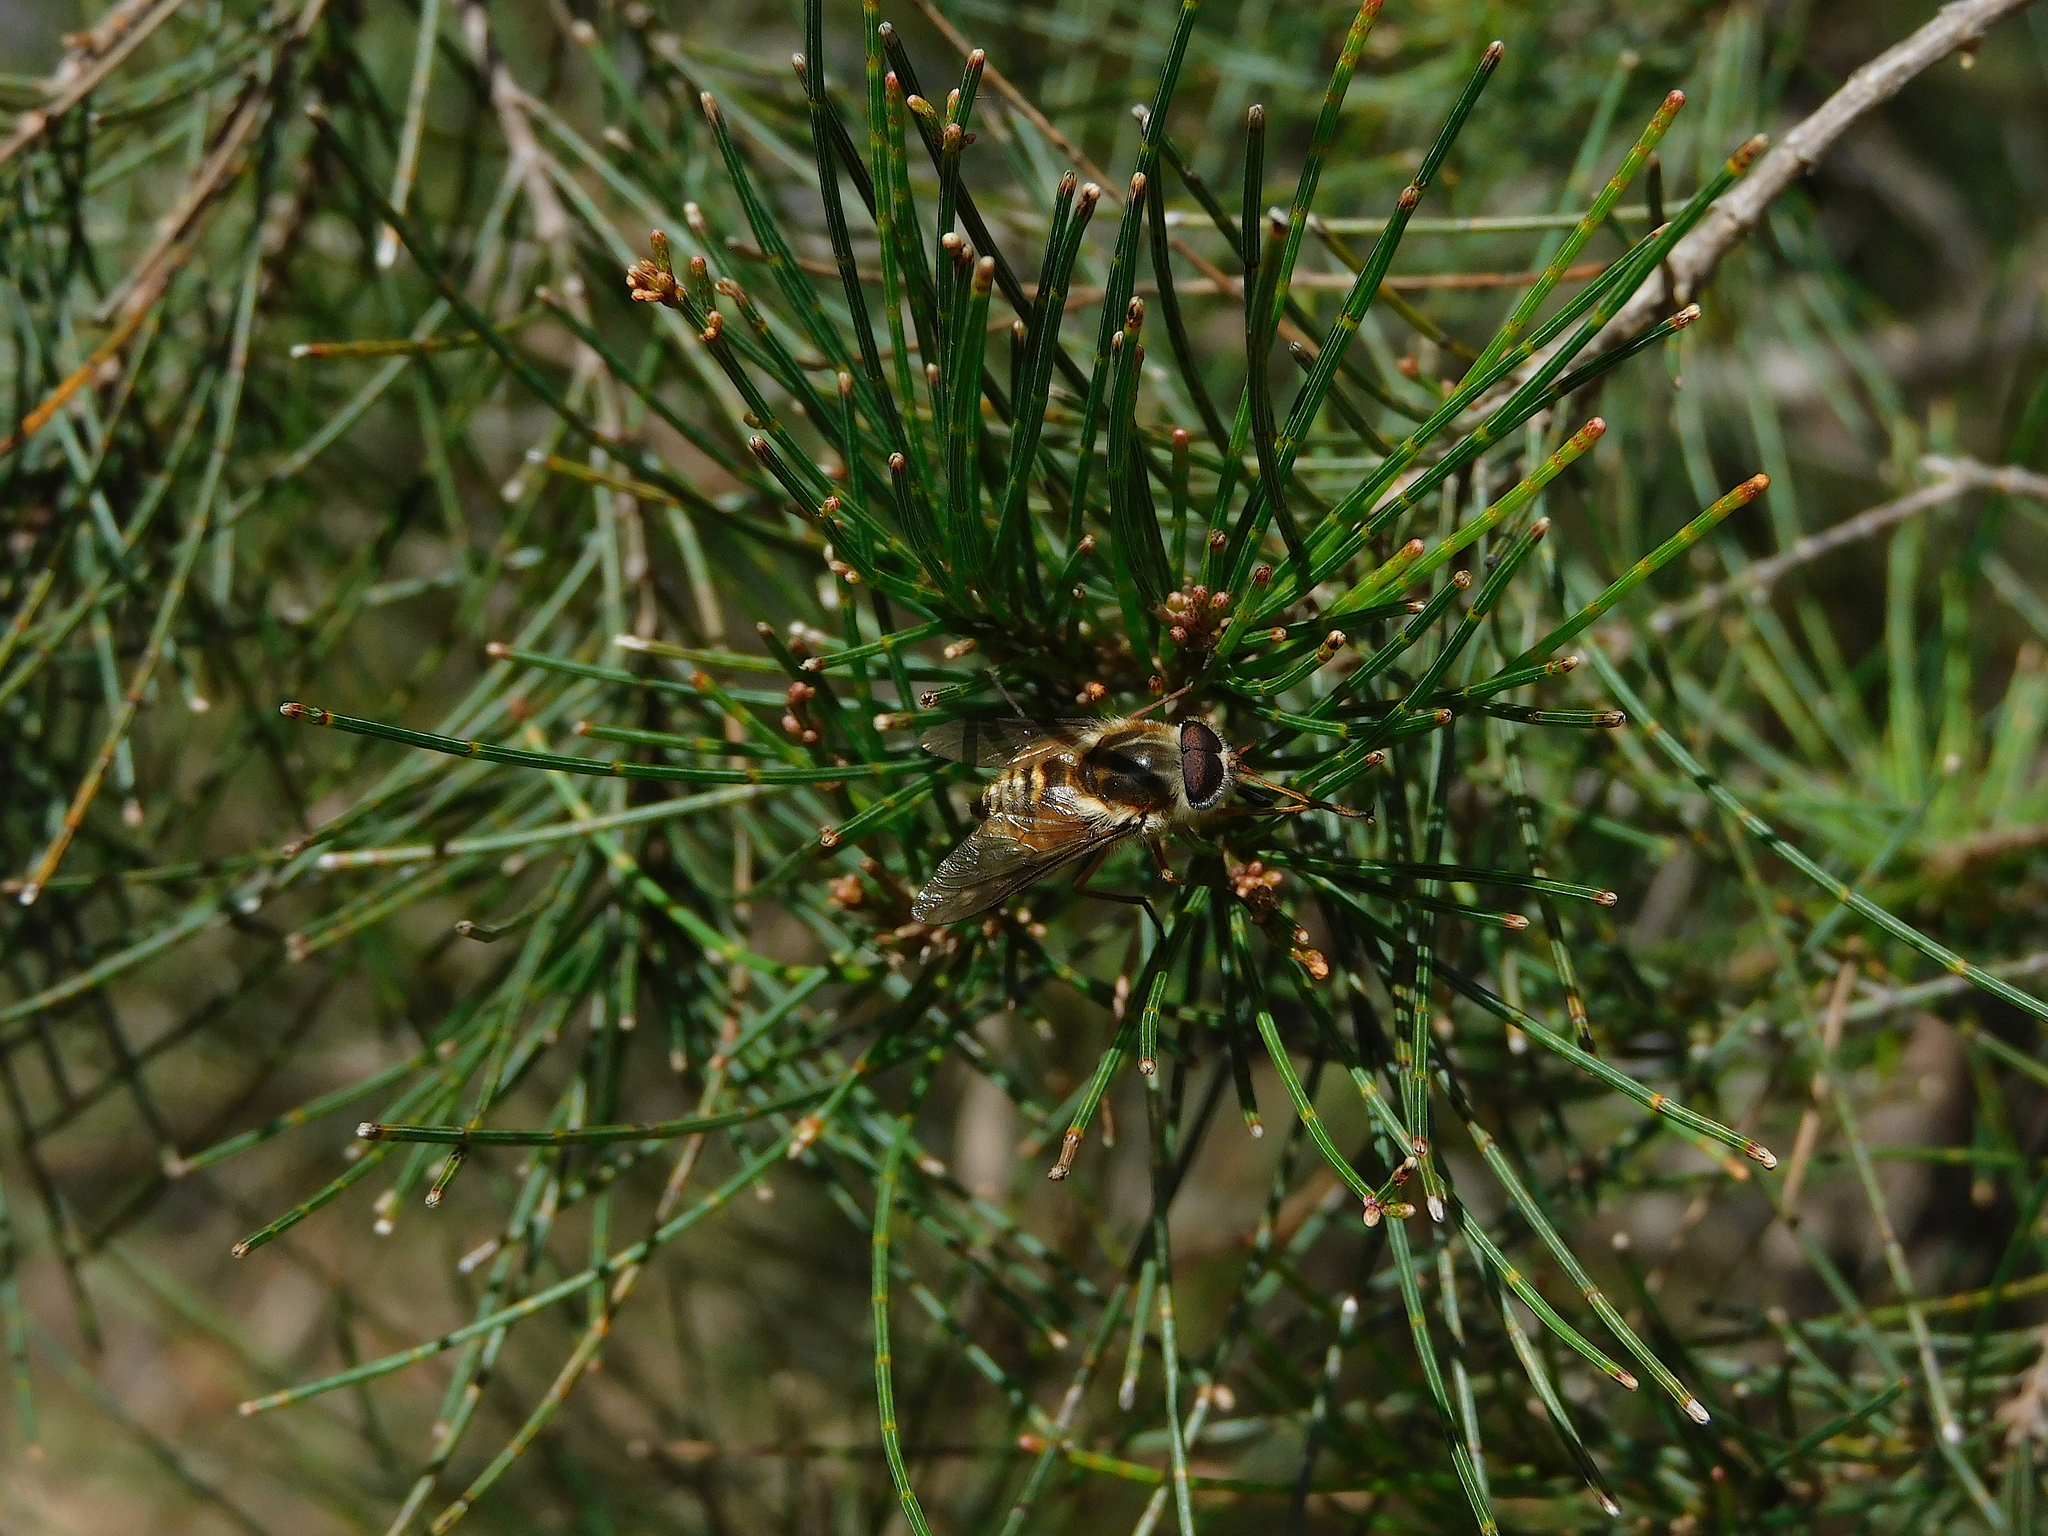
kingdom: Animalia
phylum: Arthropoda
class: Insecta
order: Diptera
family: Tabanidae
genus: Scaptia
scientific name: Scaptia jacksonii
